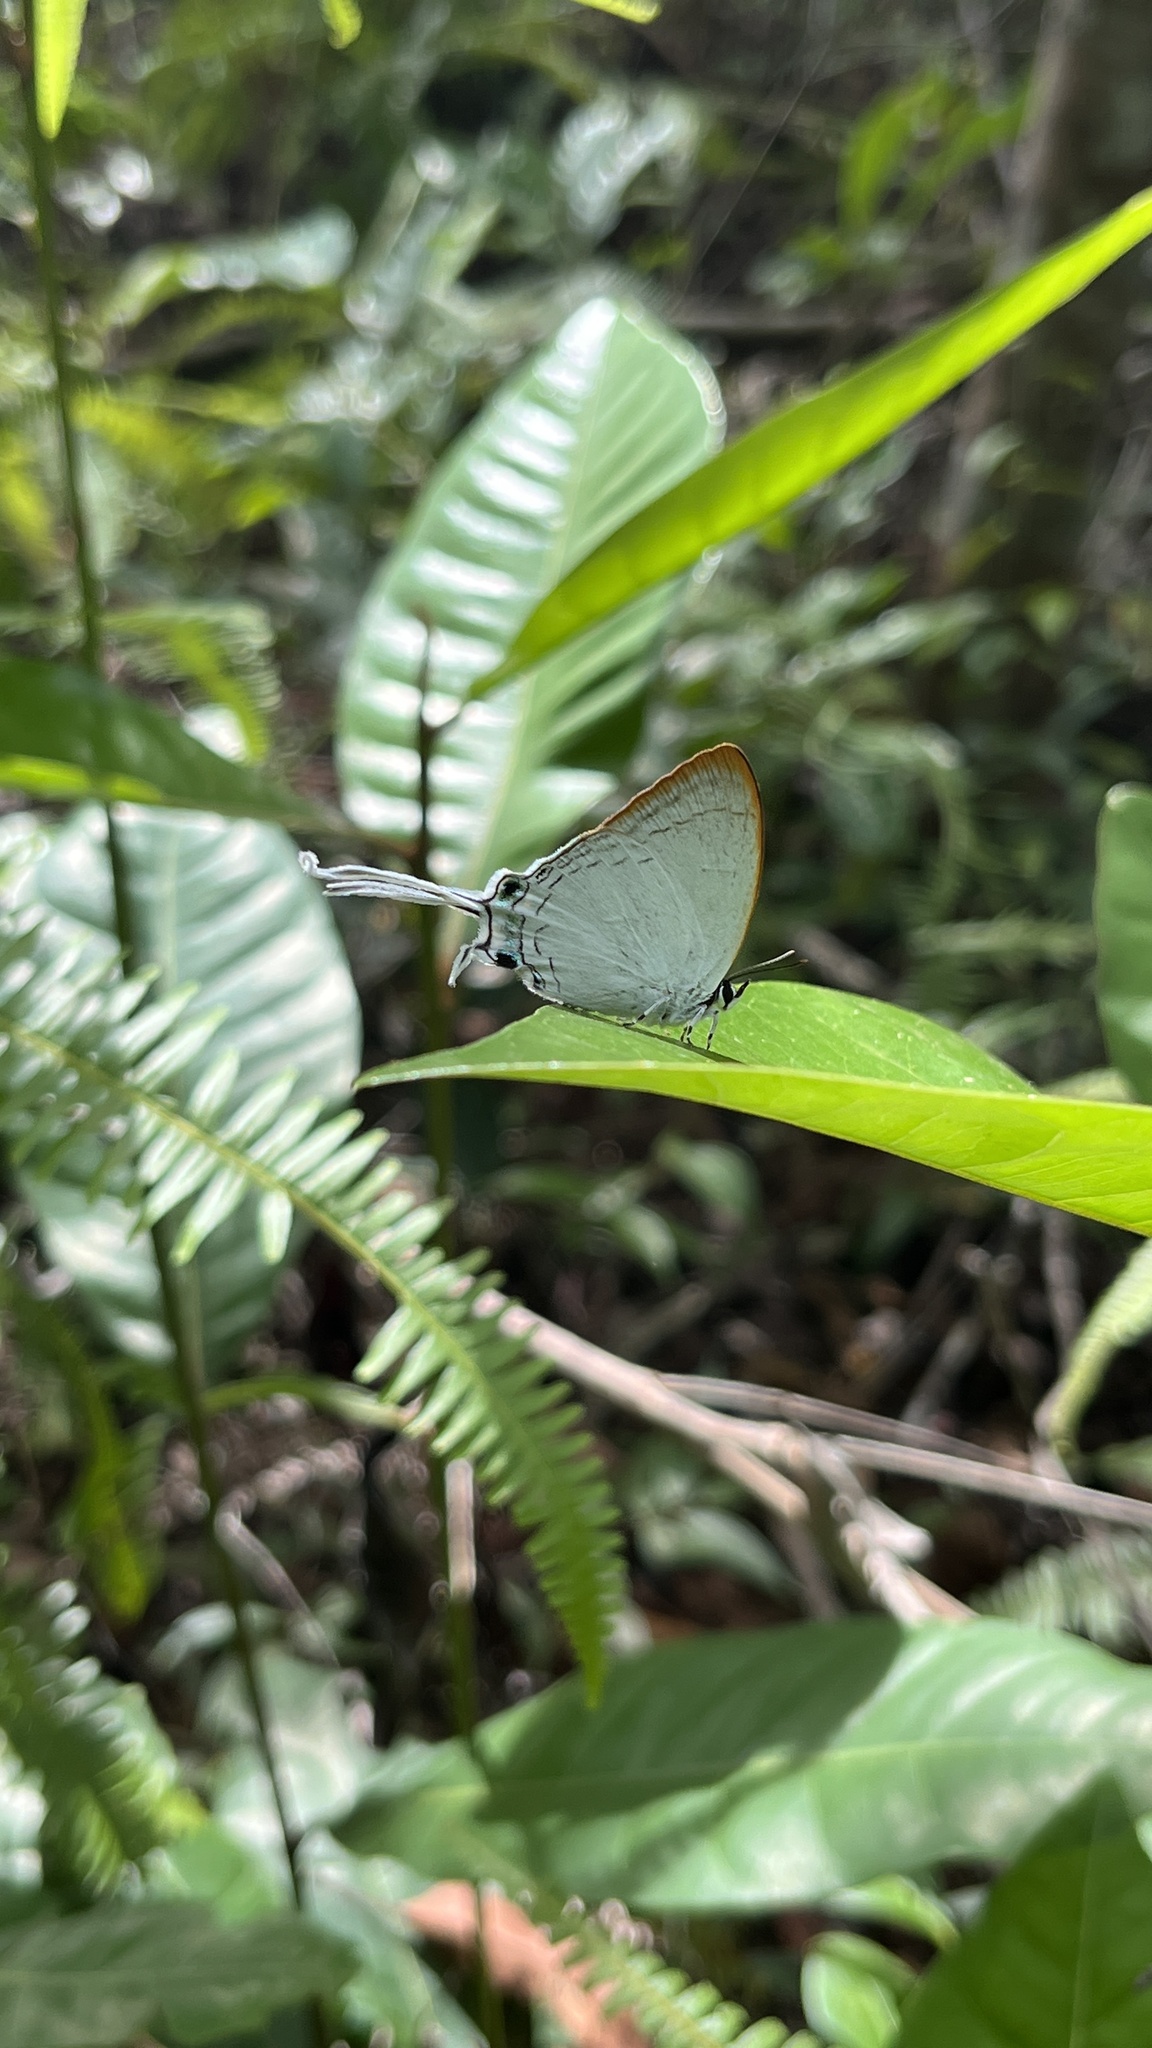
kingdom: Animalia
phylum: Arthropoda
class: Insecta
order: Lepidoptera
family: Lycaenidae
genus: Cheritra
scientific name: Cheritra freja
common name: Common imperial
